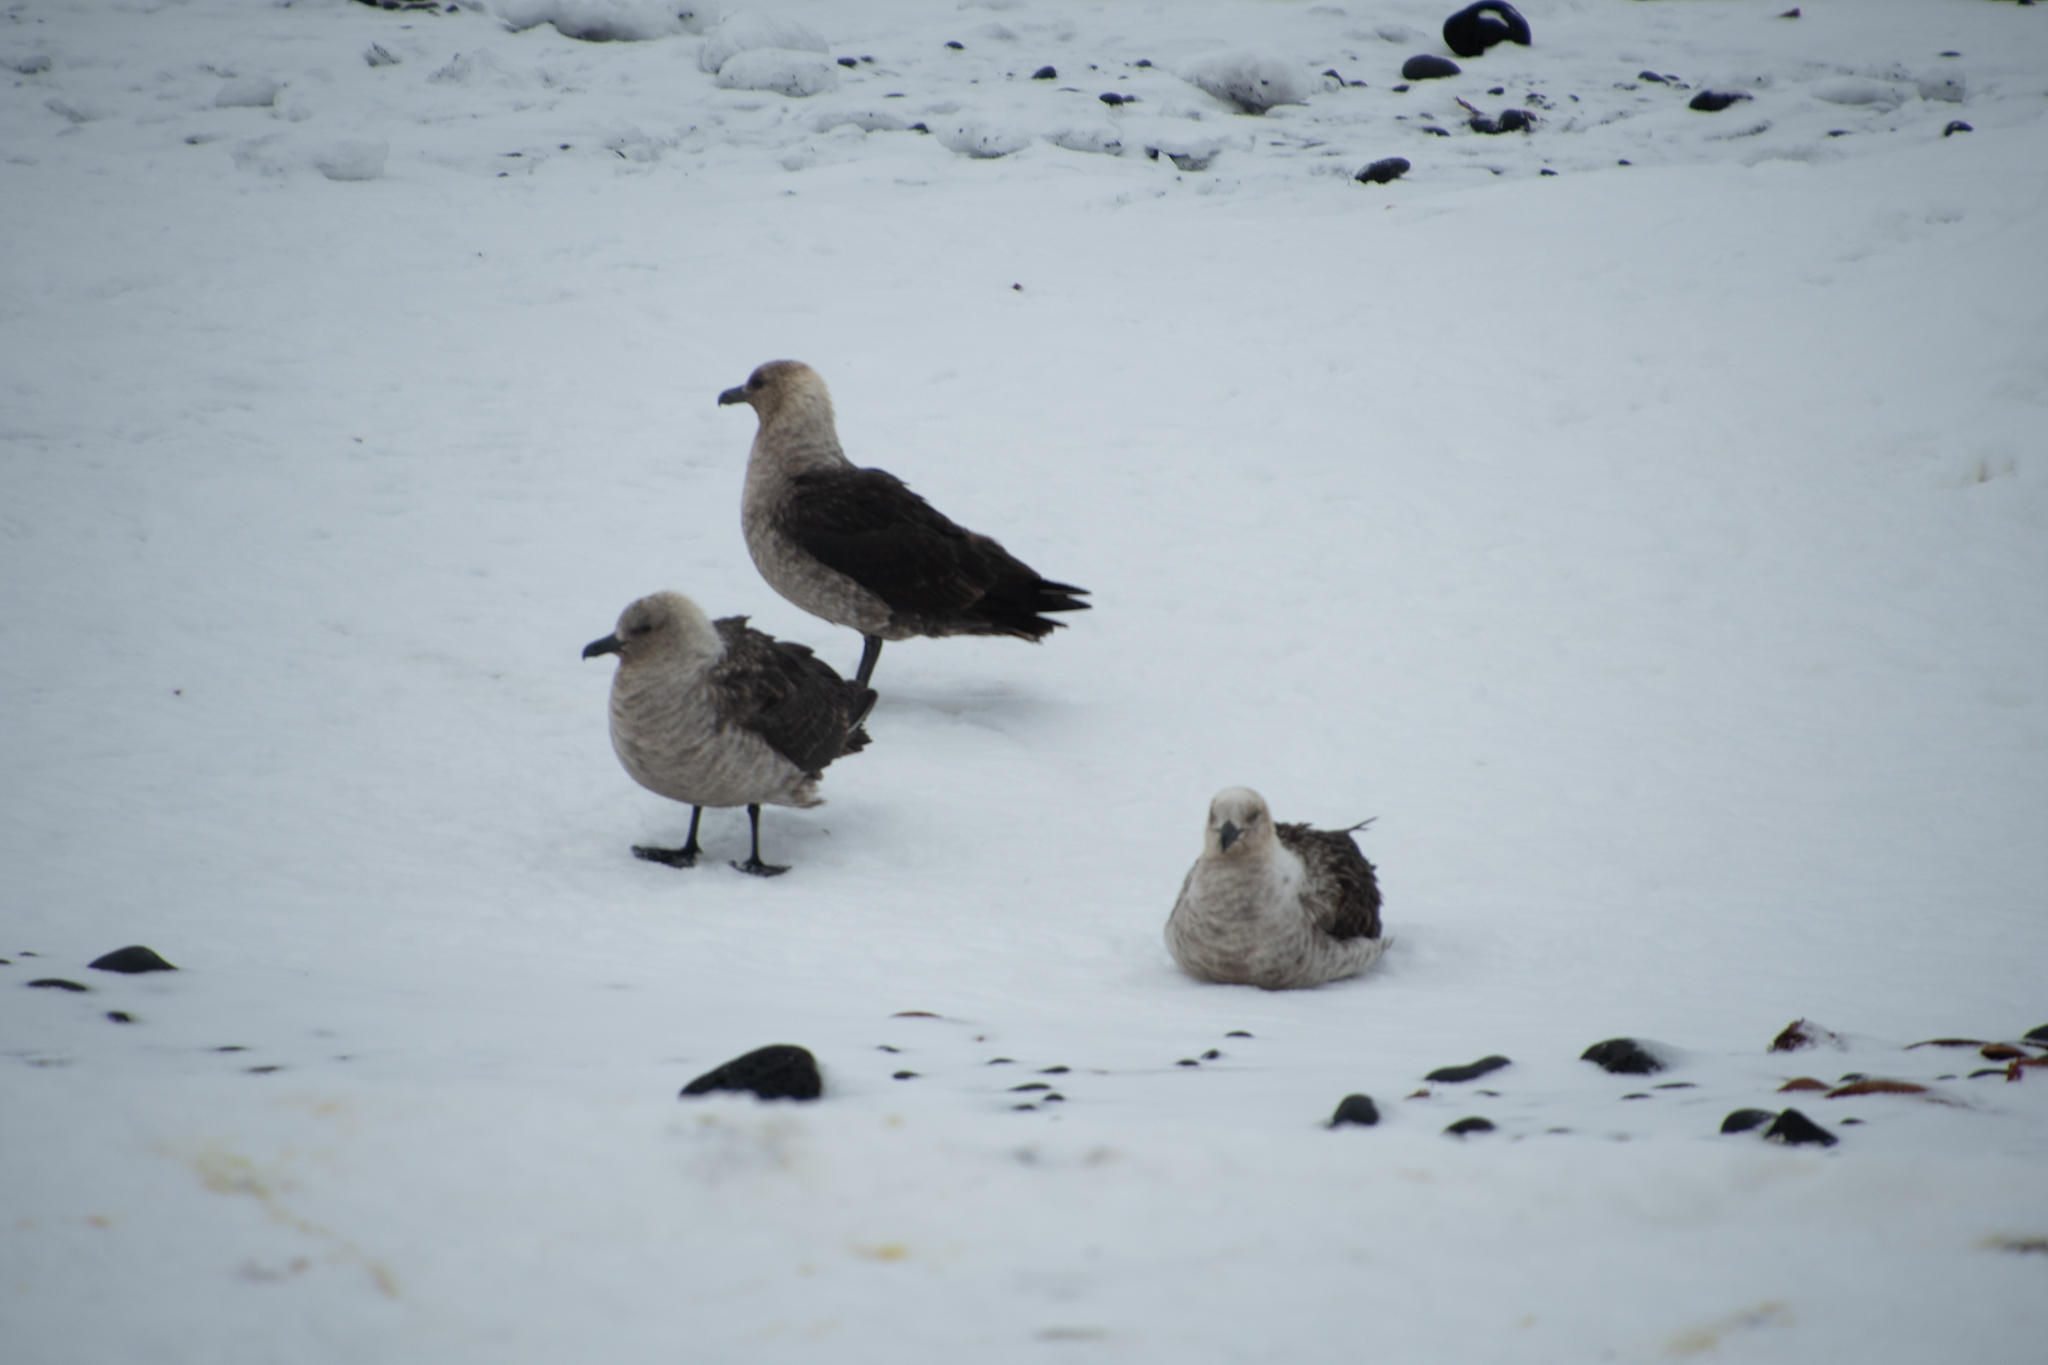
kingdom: Animalia
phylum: Chordata
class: Aves
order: Charadriiformes
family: Stercorariidae
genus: Stercorarius
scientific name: Stercorarius maccormicki
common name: South polar skua
